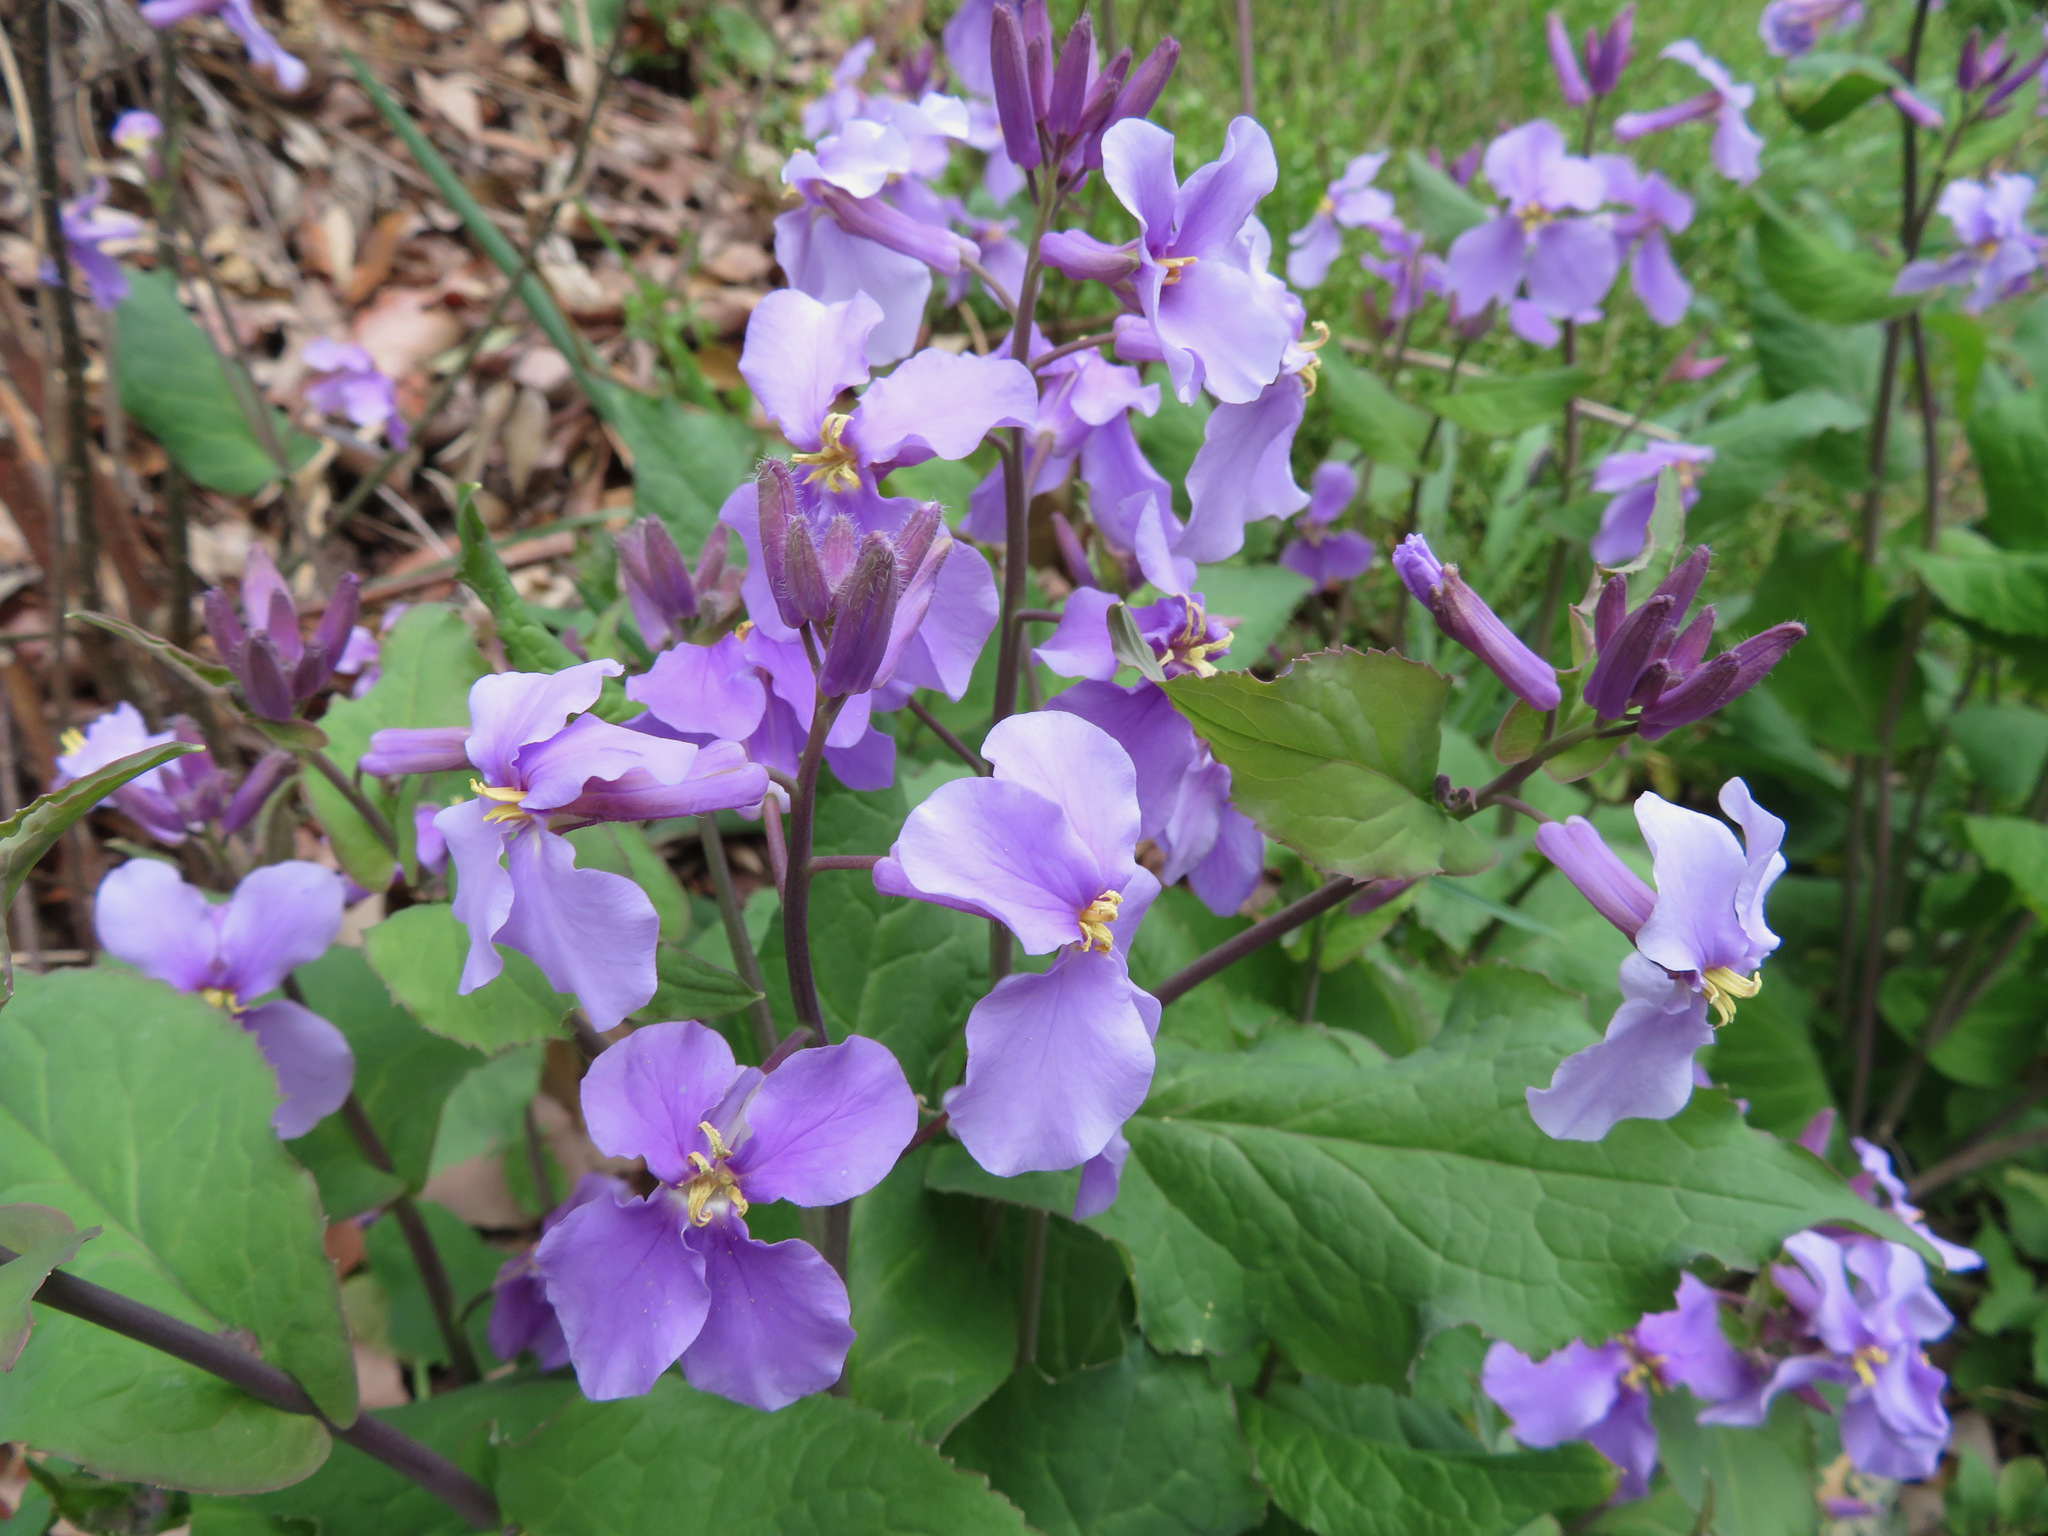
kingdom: Plantae
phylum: Tracheophyta
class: Magnoliopsida
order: Brassicales
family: Brassicaceae
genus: Orychophragmus
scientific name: Orychophragmus violaceus
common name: Mustard
